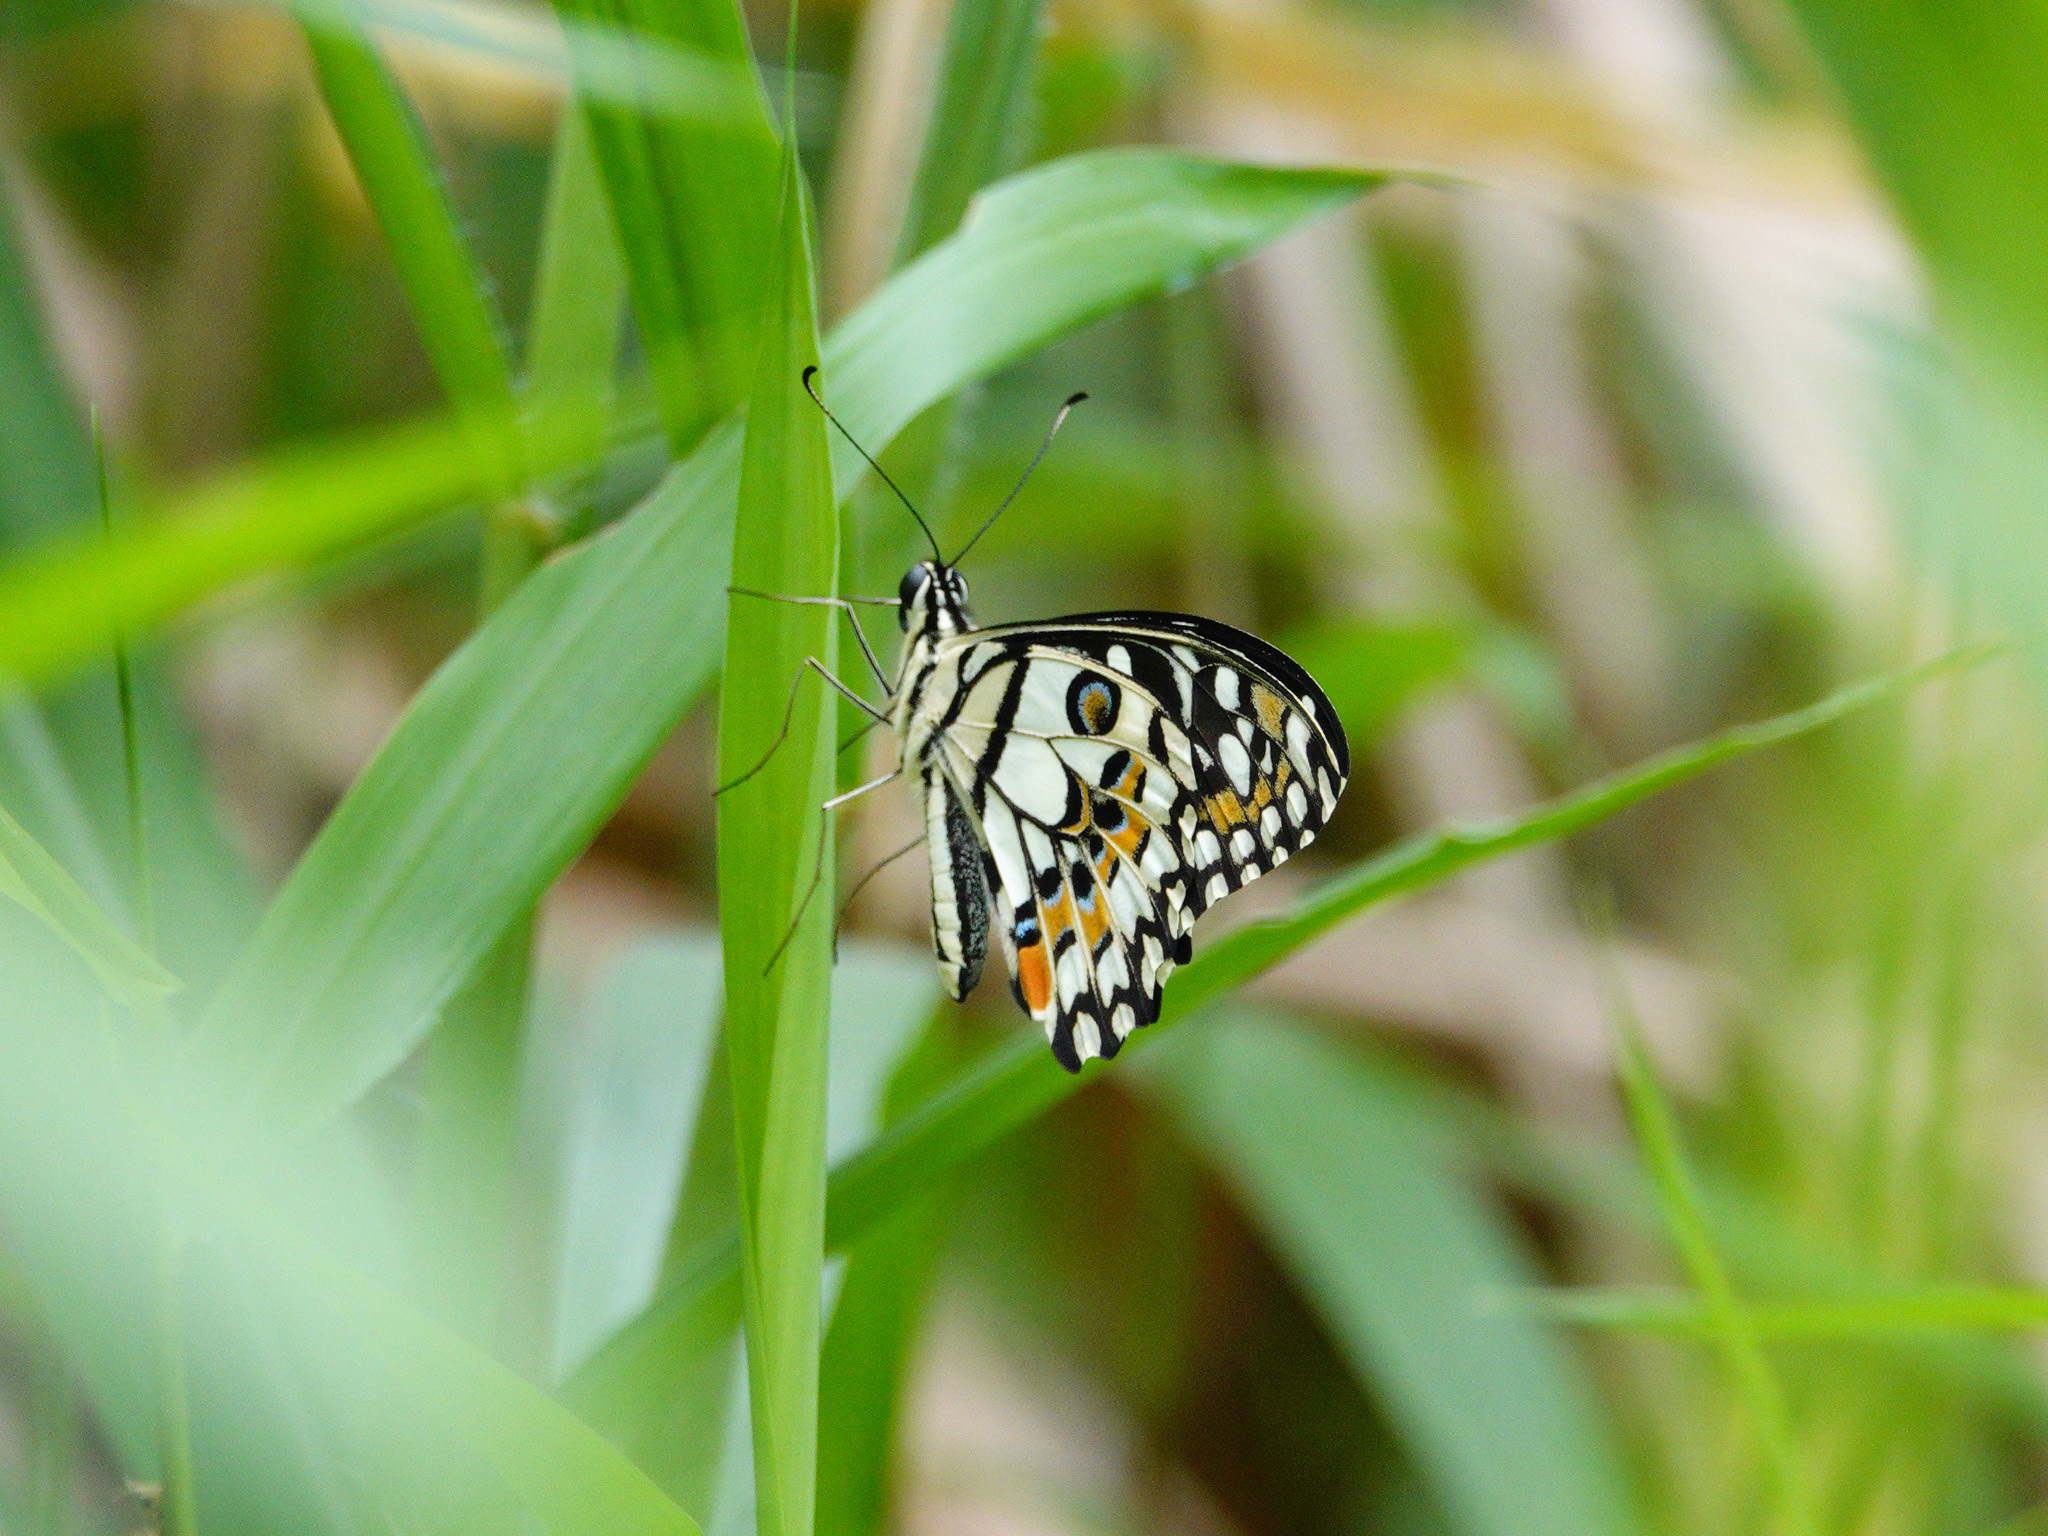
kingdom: Animalia
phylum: Arthropoda
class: Insecta
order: Lepidoptera
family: Papilionidae
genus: Papilio
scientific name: Papilio demoleus
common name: Lime butterfly
